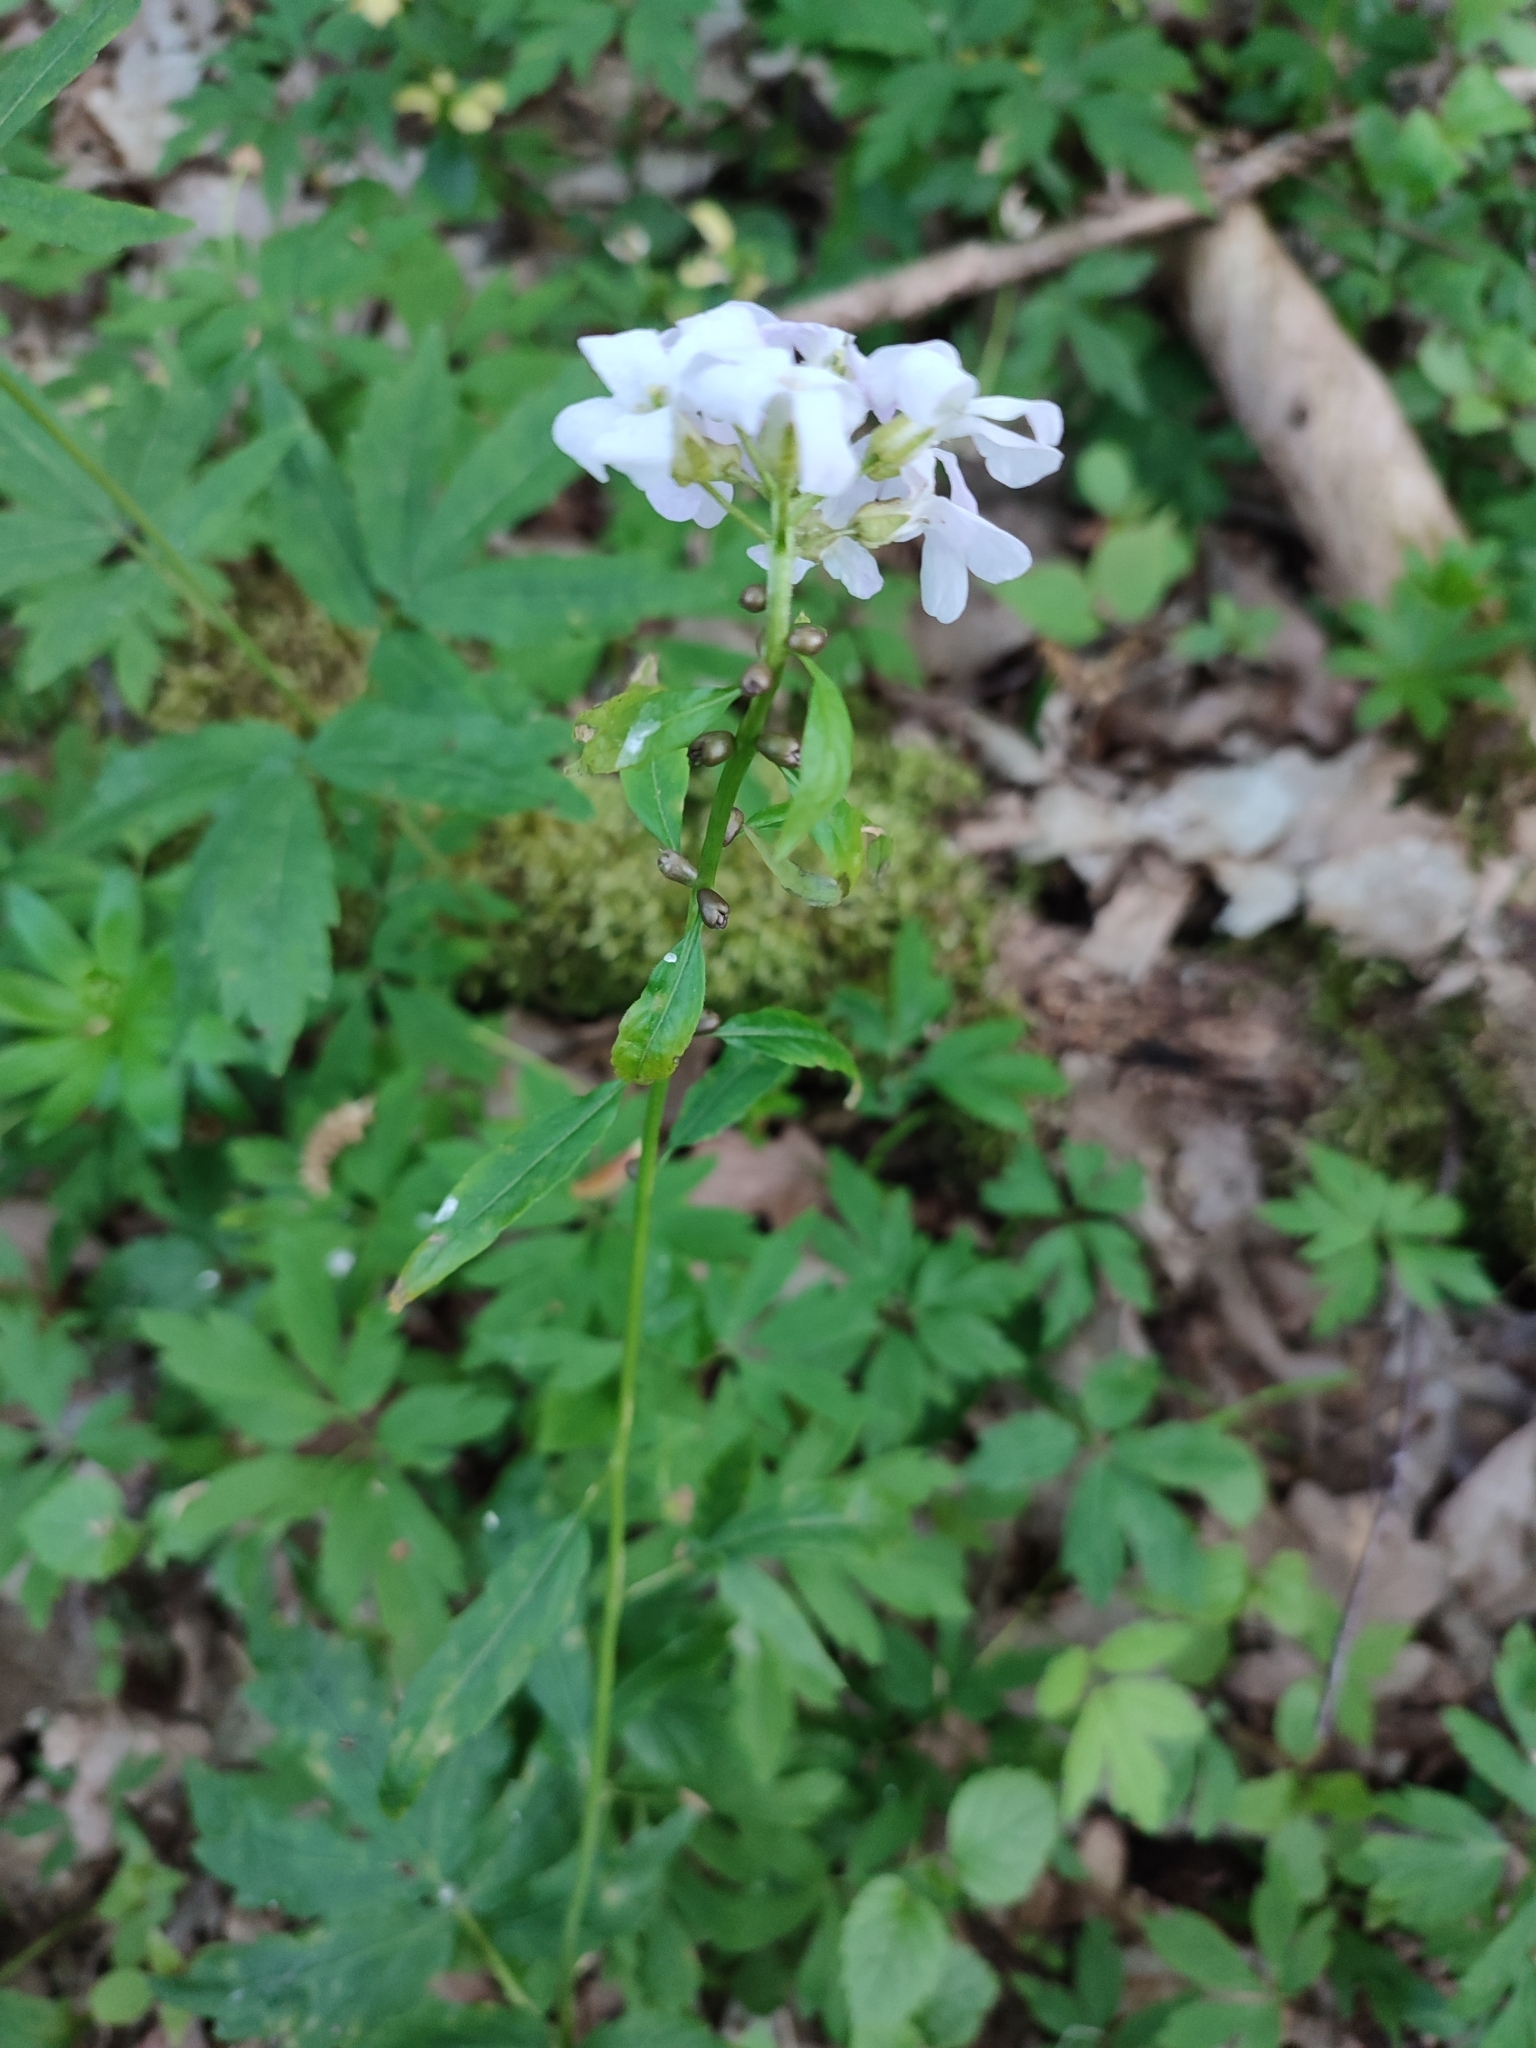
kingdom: Plantae
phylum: Tracheophyta
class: Magnoliopsida
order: Brassicales
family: Brassicaceae
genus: Cardamine
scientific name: Cardamine bulbifera
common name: Coralroot bittercress
